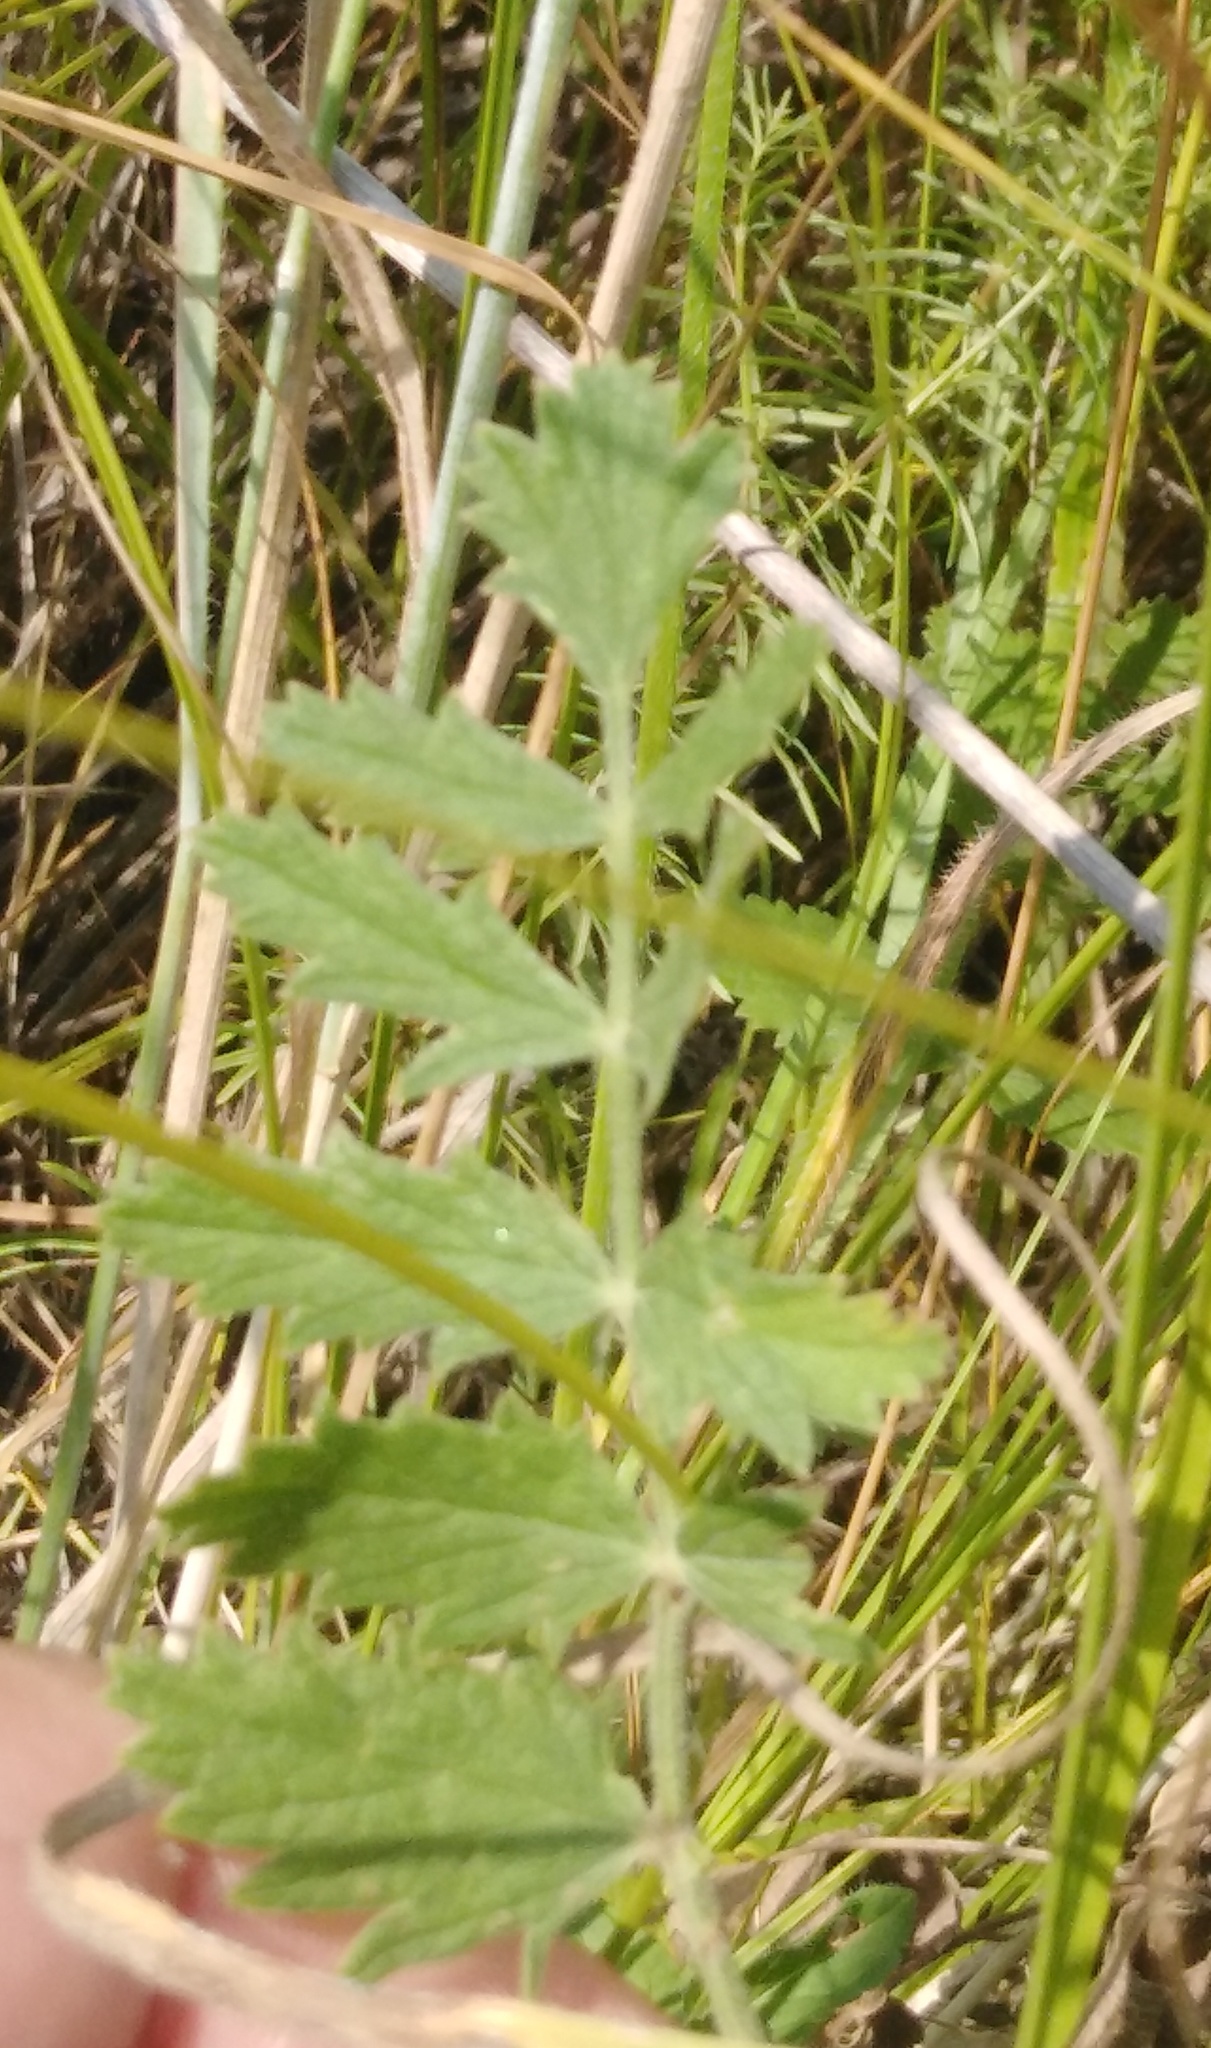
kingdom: Plantae
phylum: Tracheophyta
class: Magnoliopsida
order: Apiales
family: Apiaceae
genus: Pimpinella
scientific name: Pimpinella saxifraga
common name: Burnet-saxifrage
